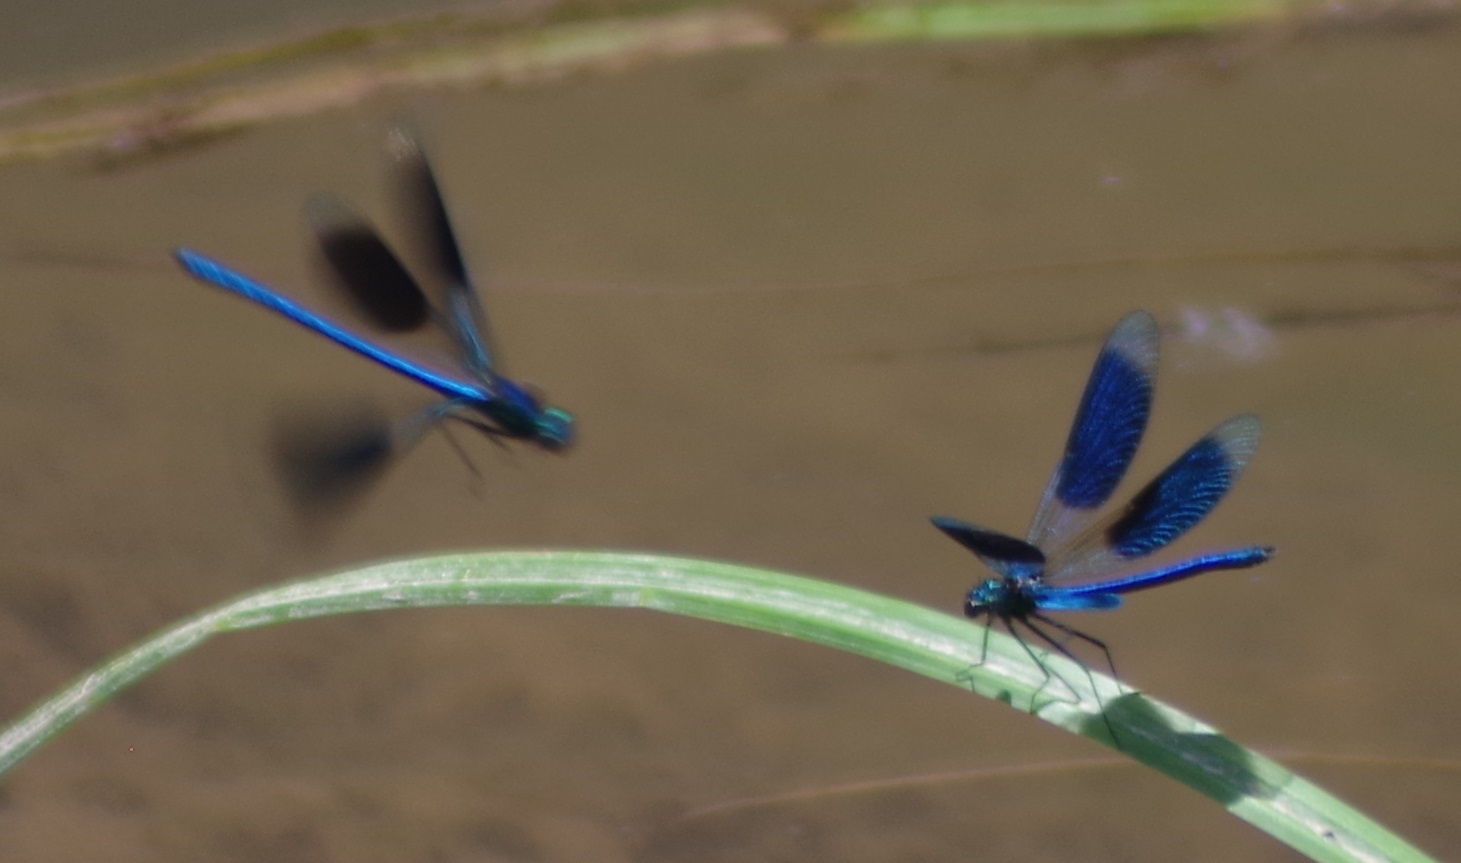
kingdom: Animalia
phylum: Arthropoda
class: Insecta
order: Odonata
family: Calopterygidae
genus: Calopteryx
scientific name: Calopteryx splendens
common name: Banded demoiselle
